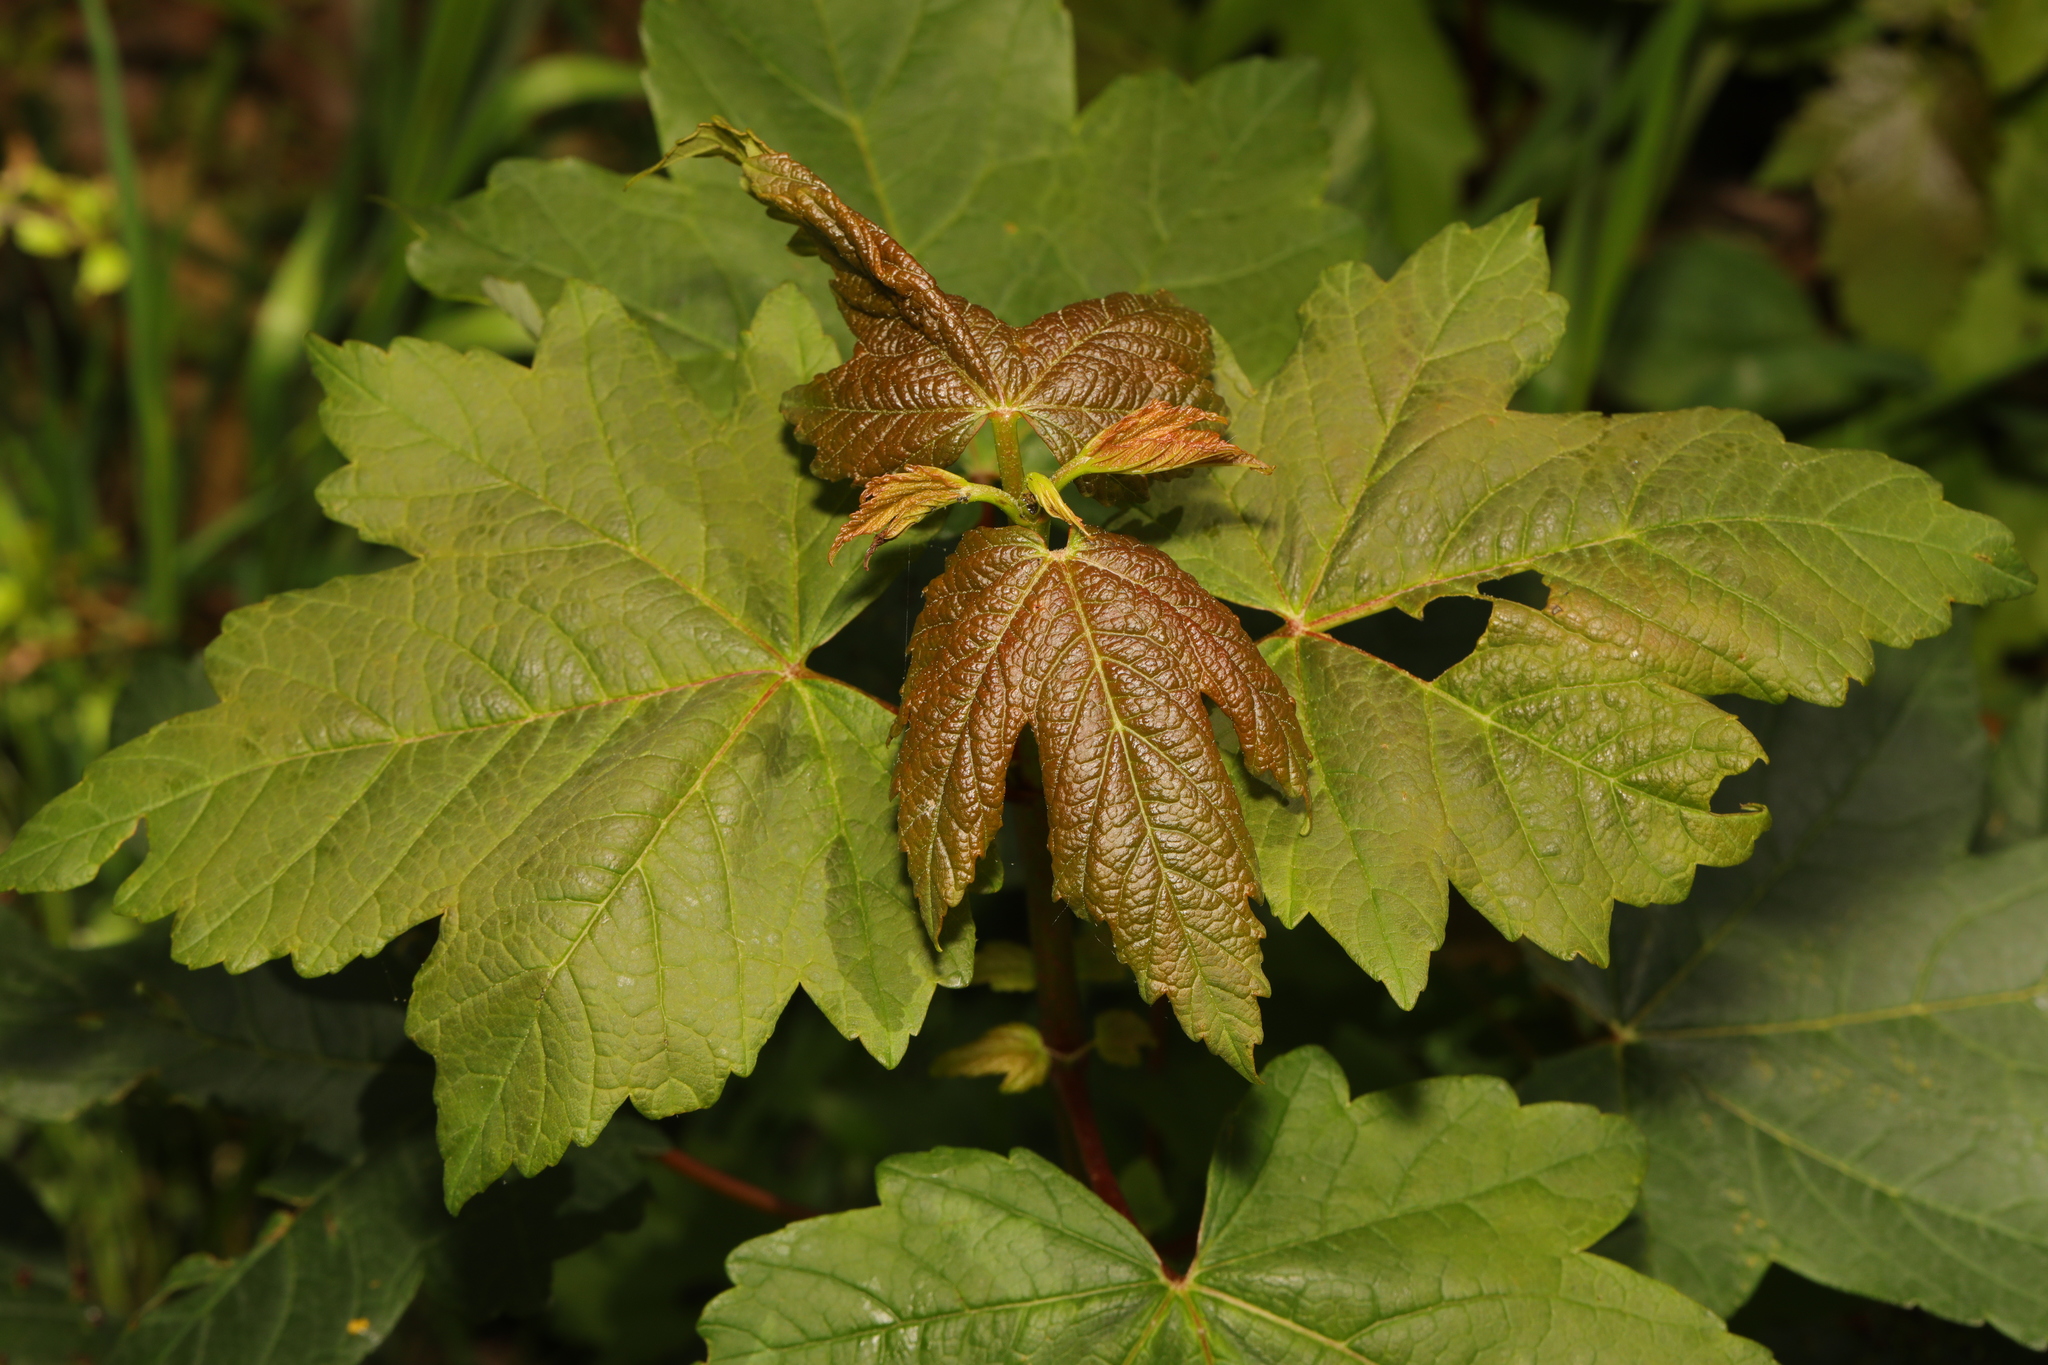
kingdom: Plantae
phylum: Tracheophyta
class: Magnoliopsida
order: Sapindales
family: Sapindaceae
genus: Acer
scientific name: Acer pseudoplatanus
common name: Sycamore
